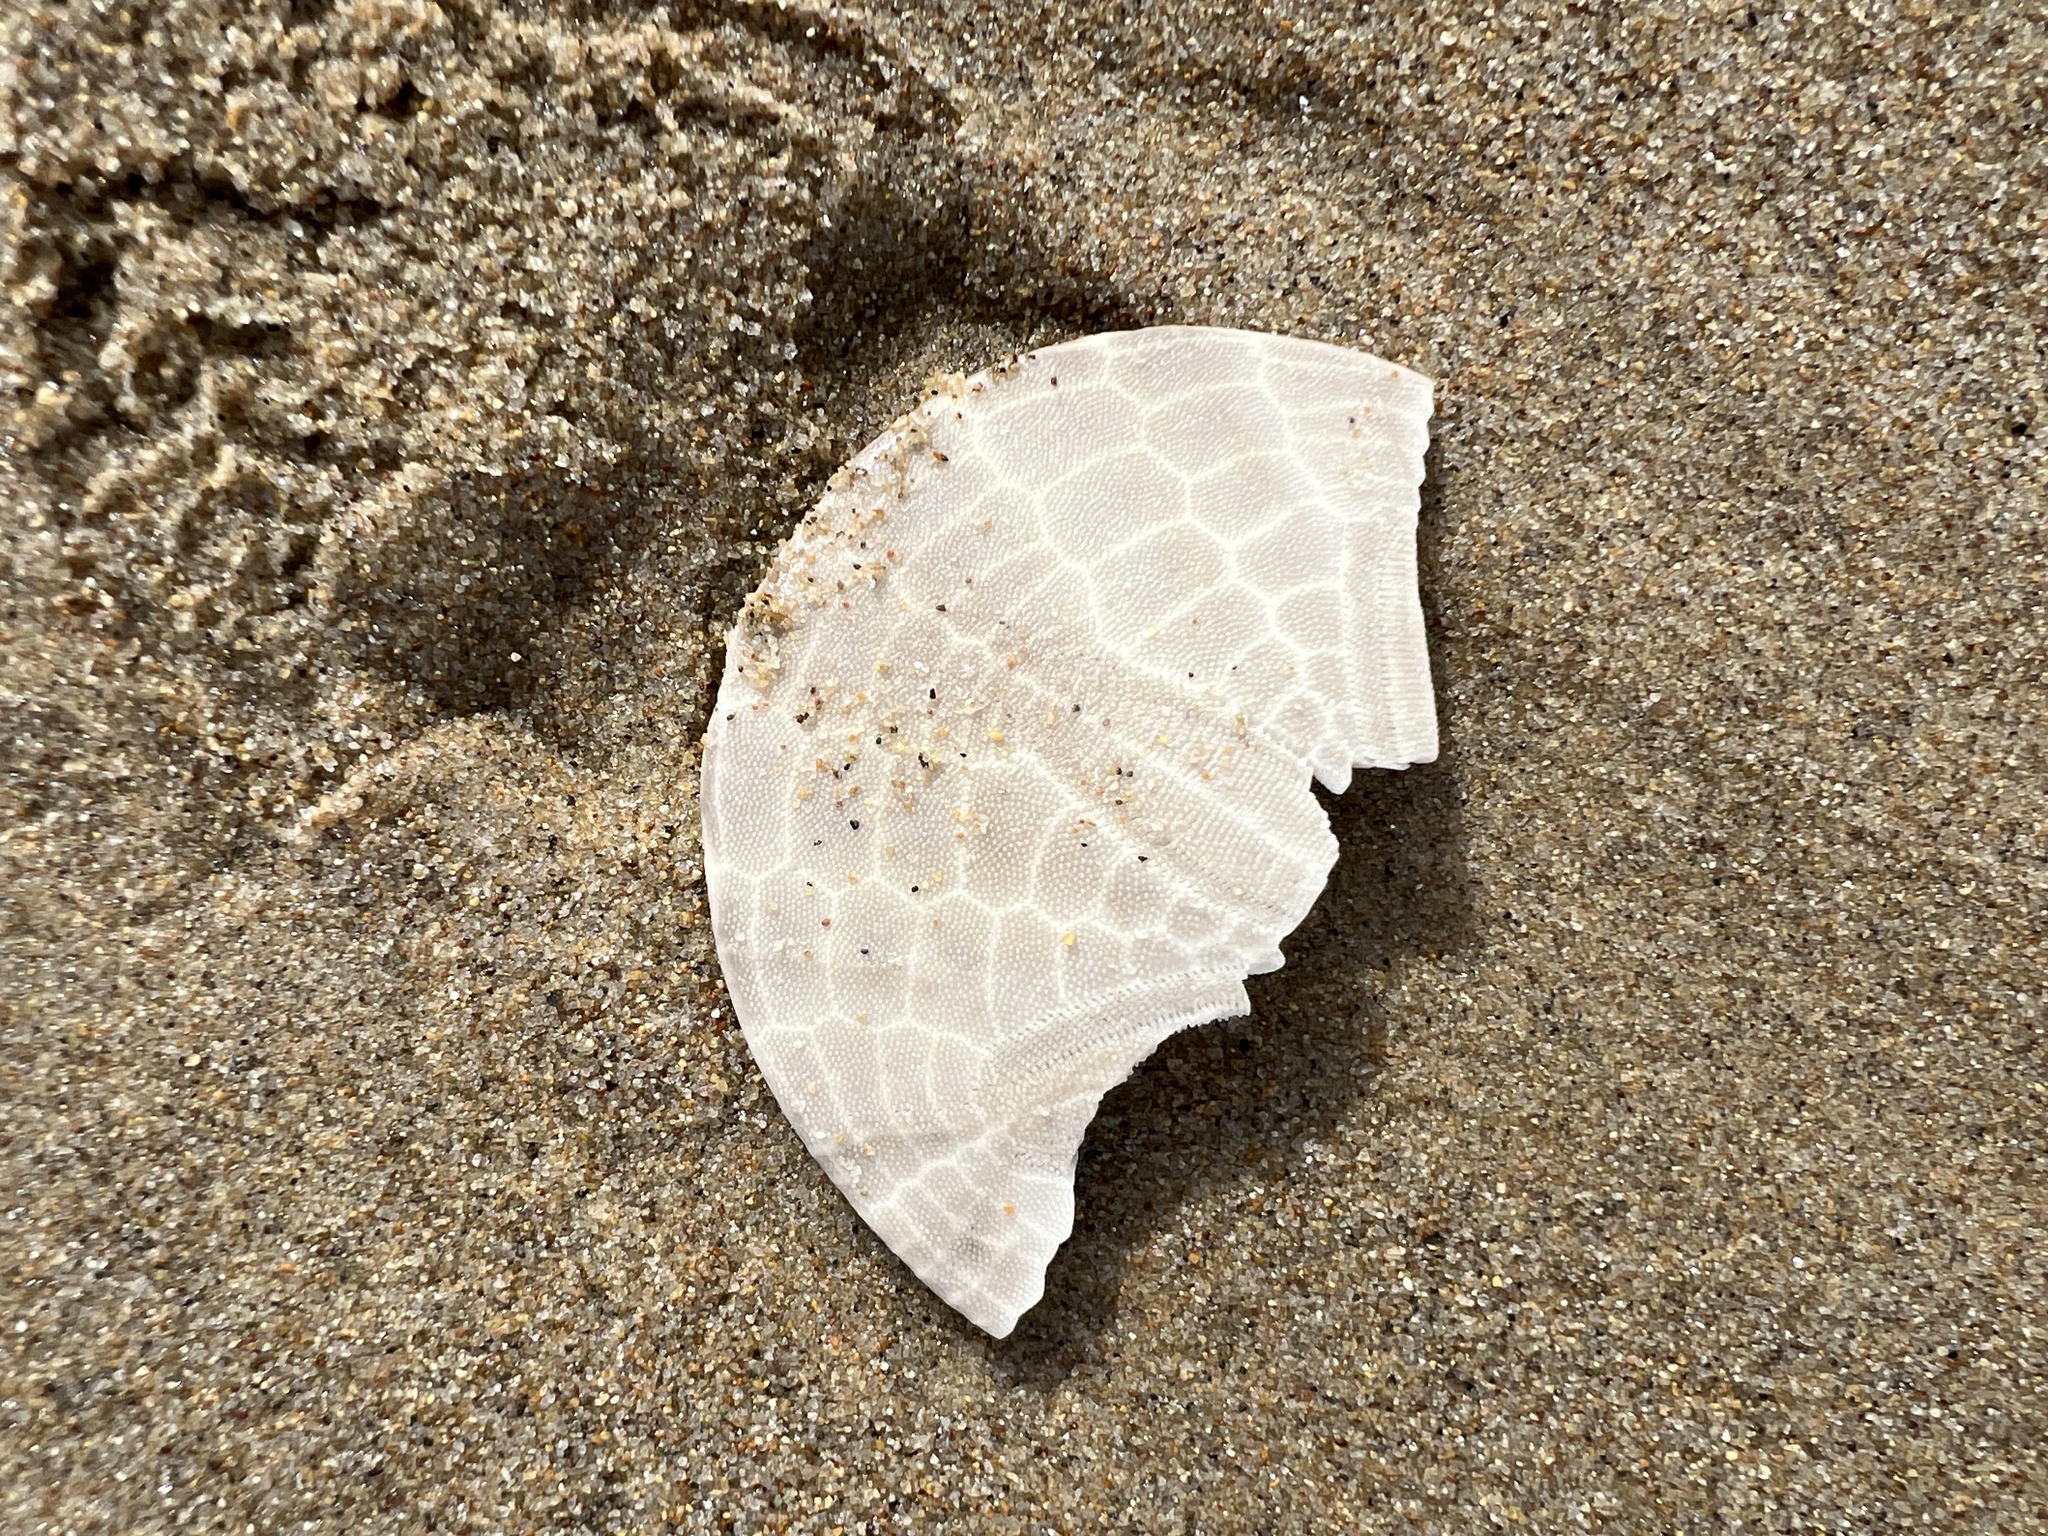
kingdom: Animalia
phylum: Echinodermata
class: Echinoidea
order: Echinolampadacea
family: Dendrasteridae
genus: Dendraster
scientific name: Dendraster excentricus
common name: Eccentric sand dollar sea urchin
